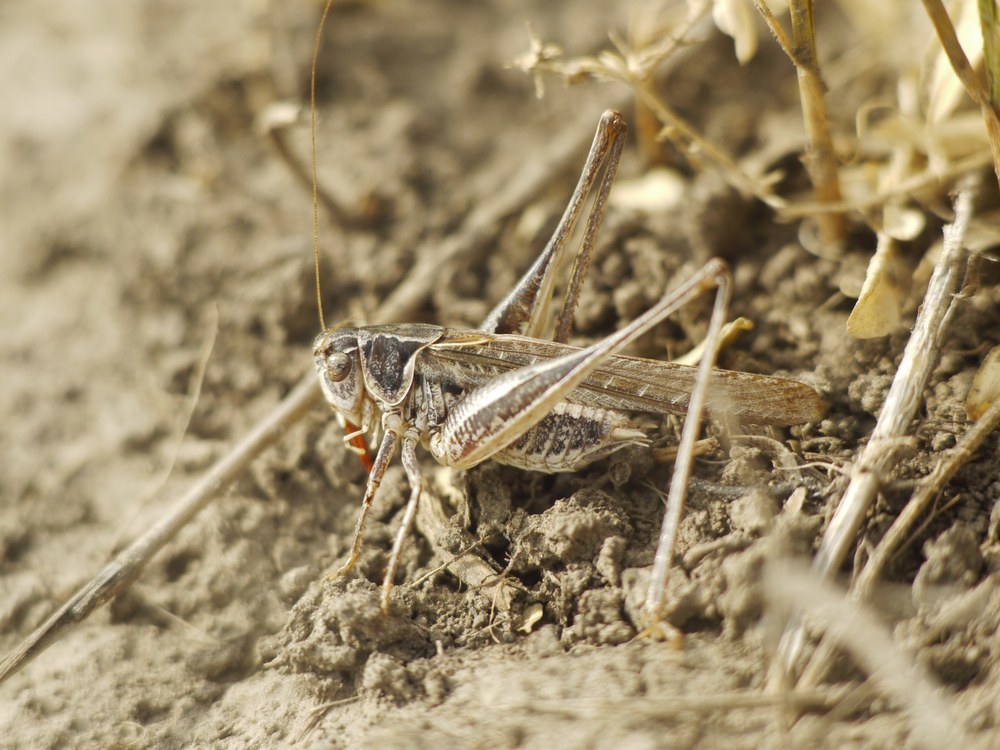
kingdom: Animalia
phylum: Arthropoda
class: Insecta
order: Orthoptera
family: Tettigoniidae
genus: Montana
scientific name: Montana stricta
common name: Italian bush-cricket
